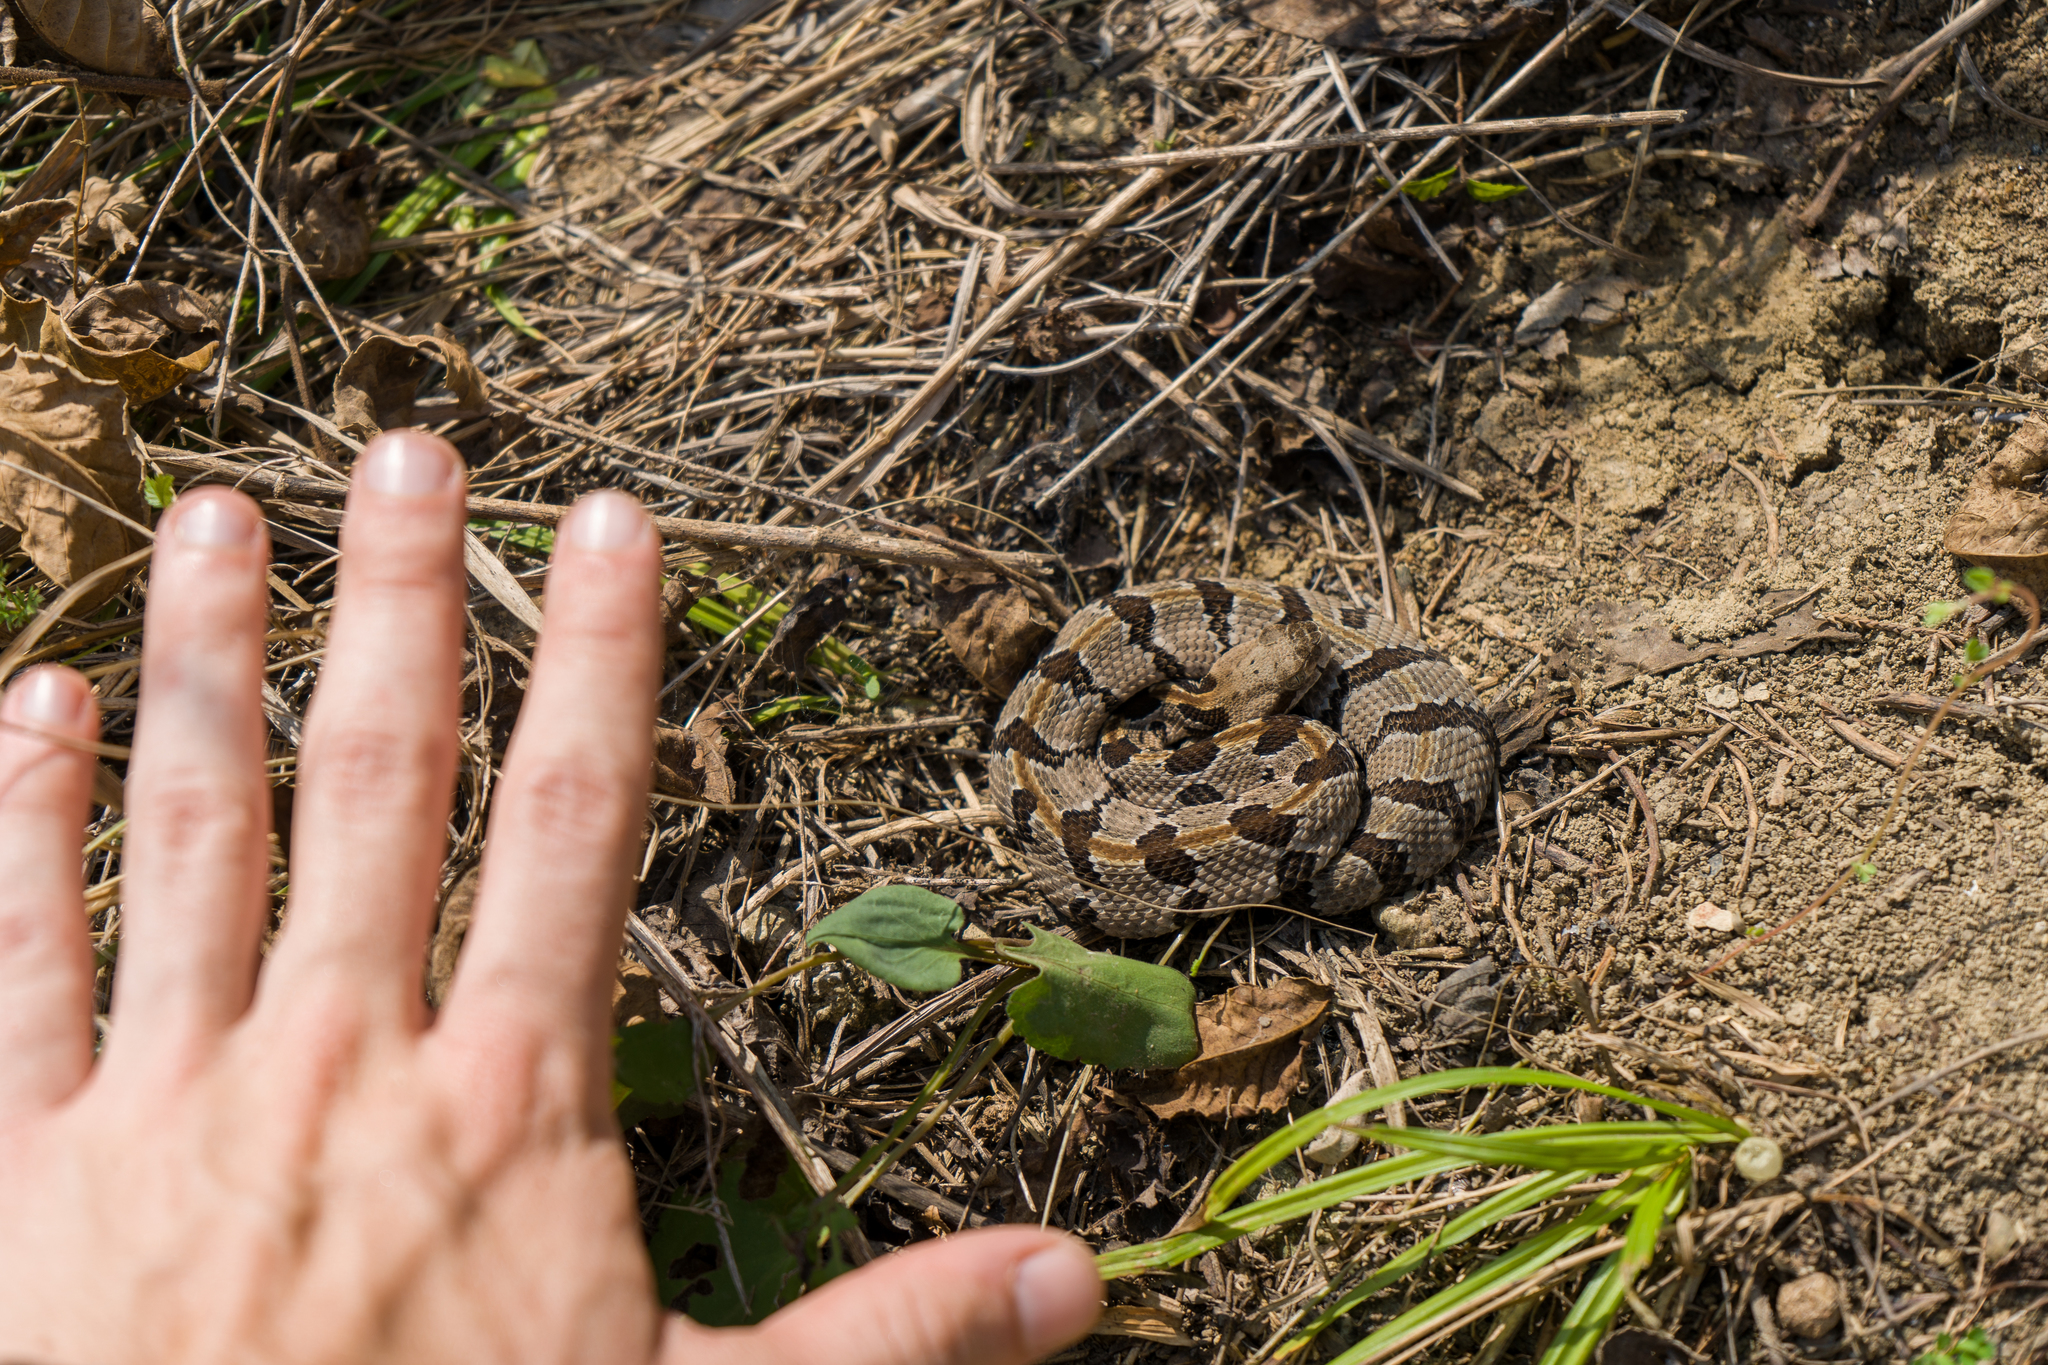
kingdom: Animalia
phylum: Chordata
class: Squamata
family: Viperidae
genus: Crotalus
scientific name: Crotalus horridus
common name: Timber rattlesnake
